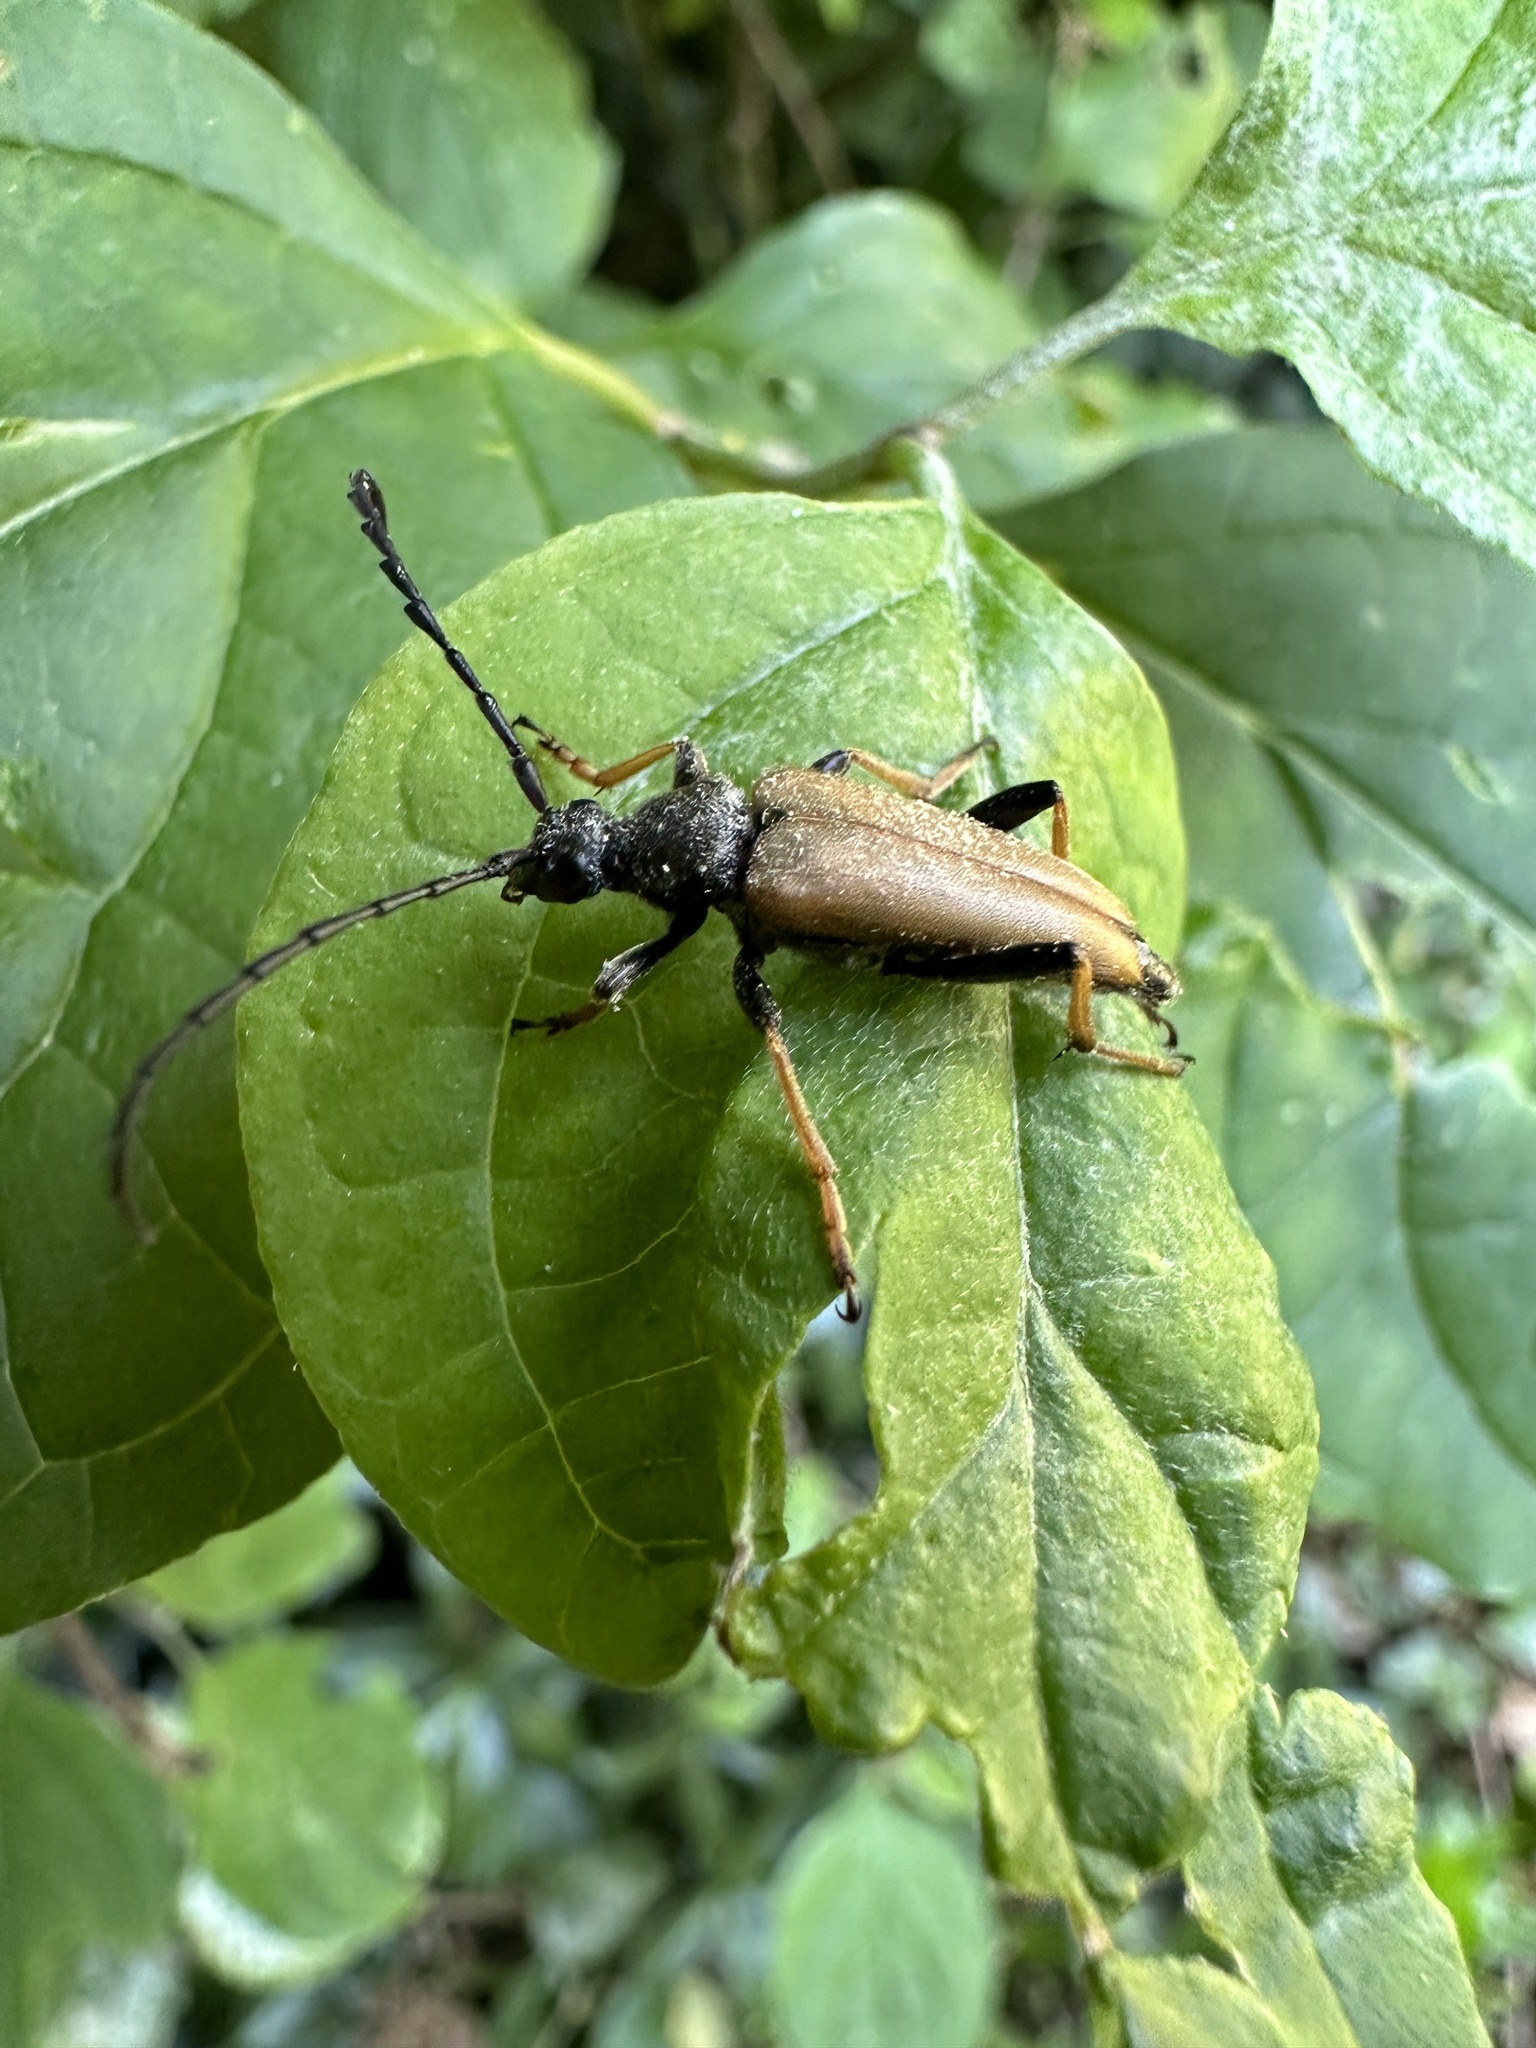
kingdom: Animalia
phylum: Arthropoda
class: Insecta
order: Coleoptera
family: Cerambycidae
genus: Stictoleptura
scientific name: Stictoleptura rubra
